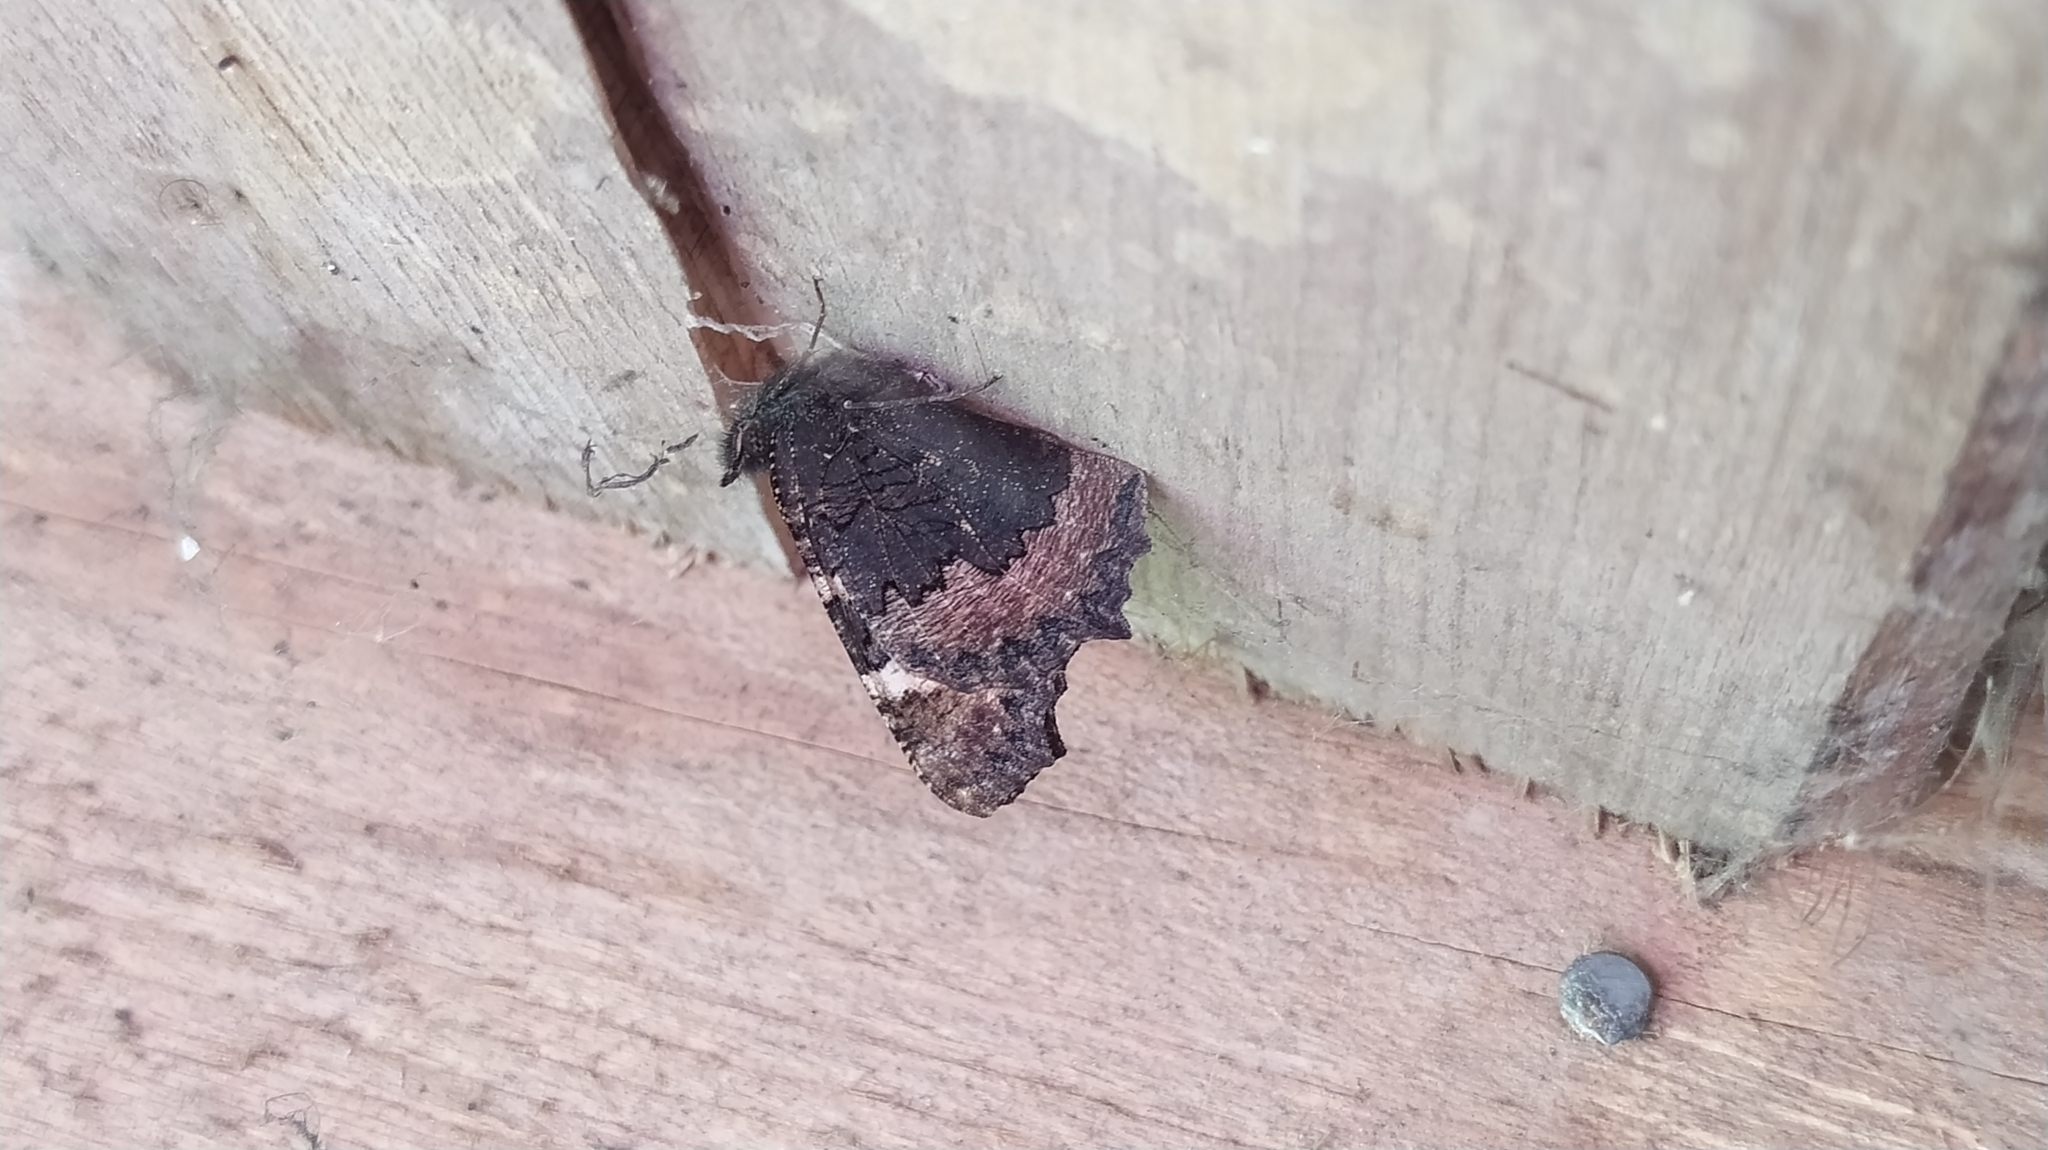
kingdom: Animalia
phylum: Arthropoda
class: Insecta
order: Lepidoptera
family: Nymphalidae
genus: Aglais
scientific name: Aglais urticae
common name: Small tortoiseshell
